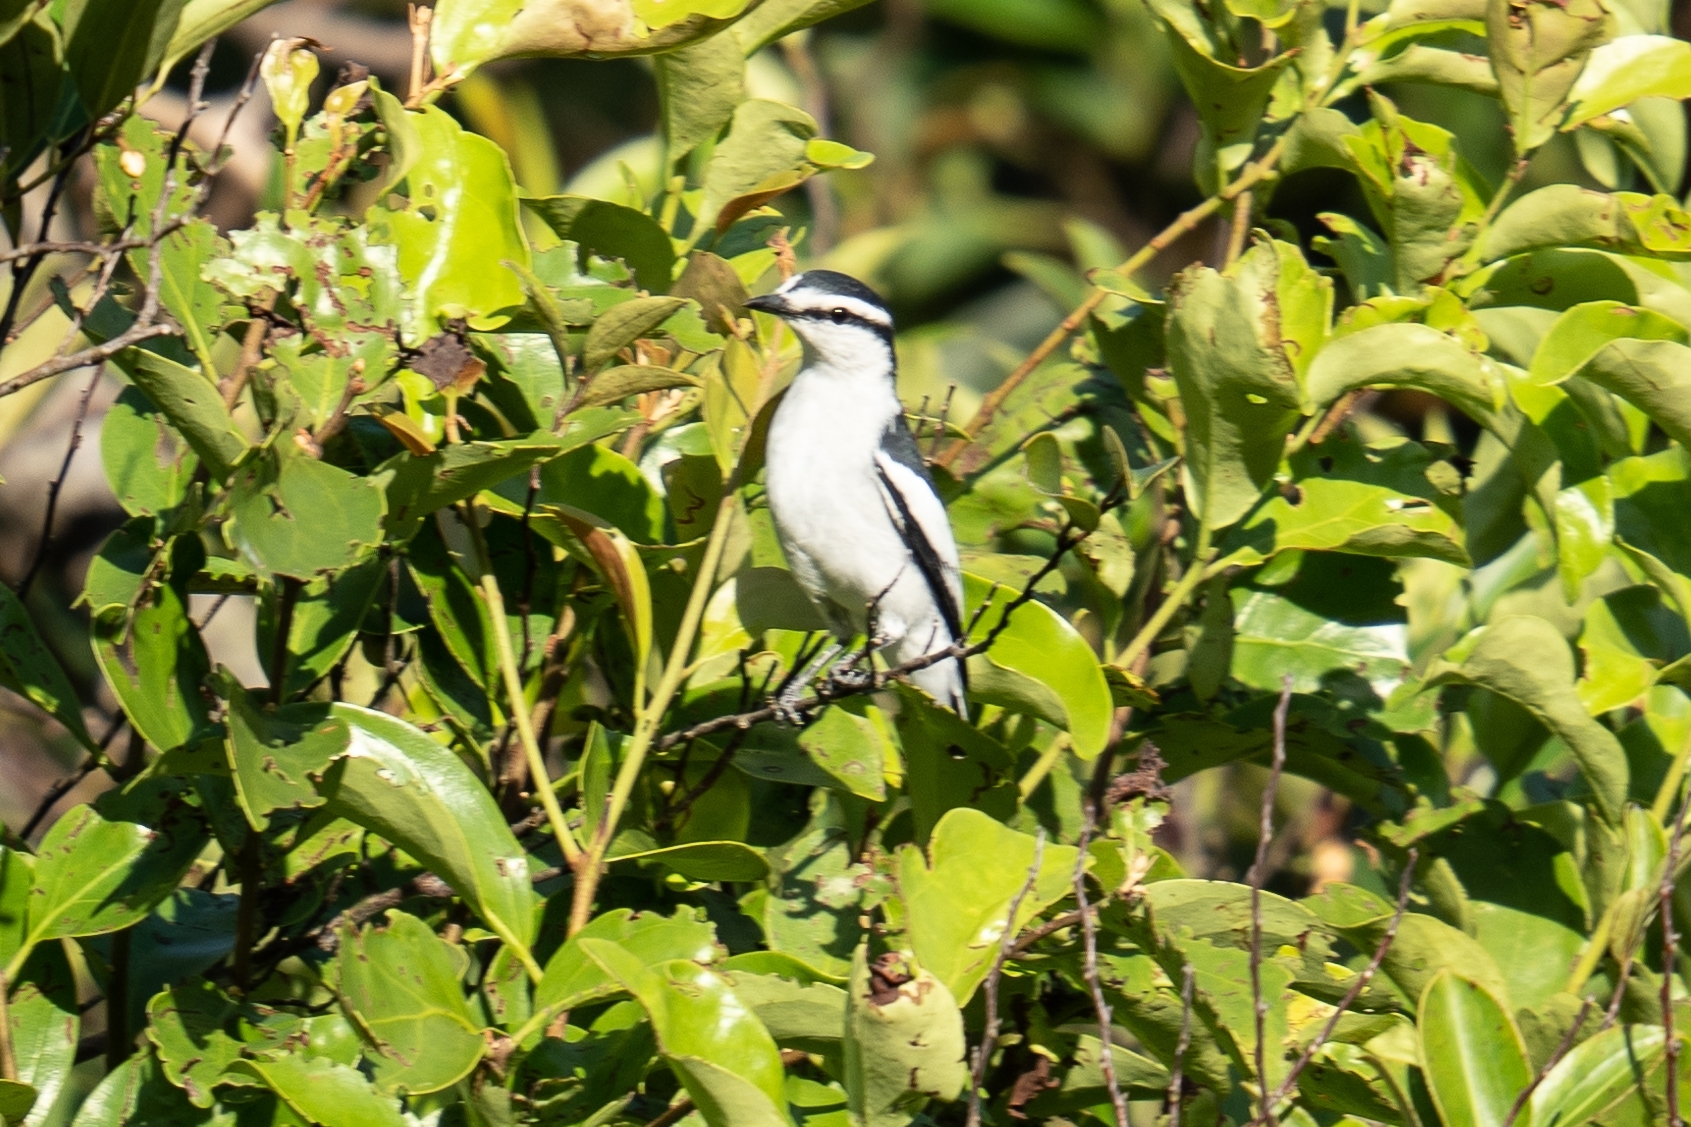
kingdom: Animalia
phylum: Chordata
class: Aves
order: Passeriformes
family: Campephagidae
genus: Lalage
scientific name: Lalage nigra
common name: Pied triller
